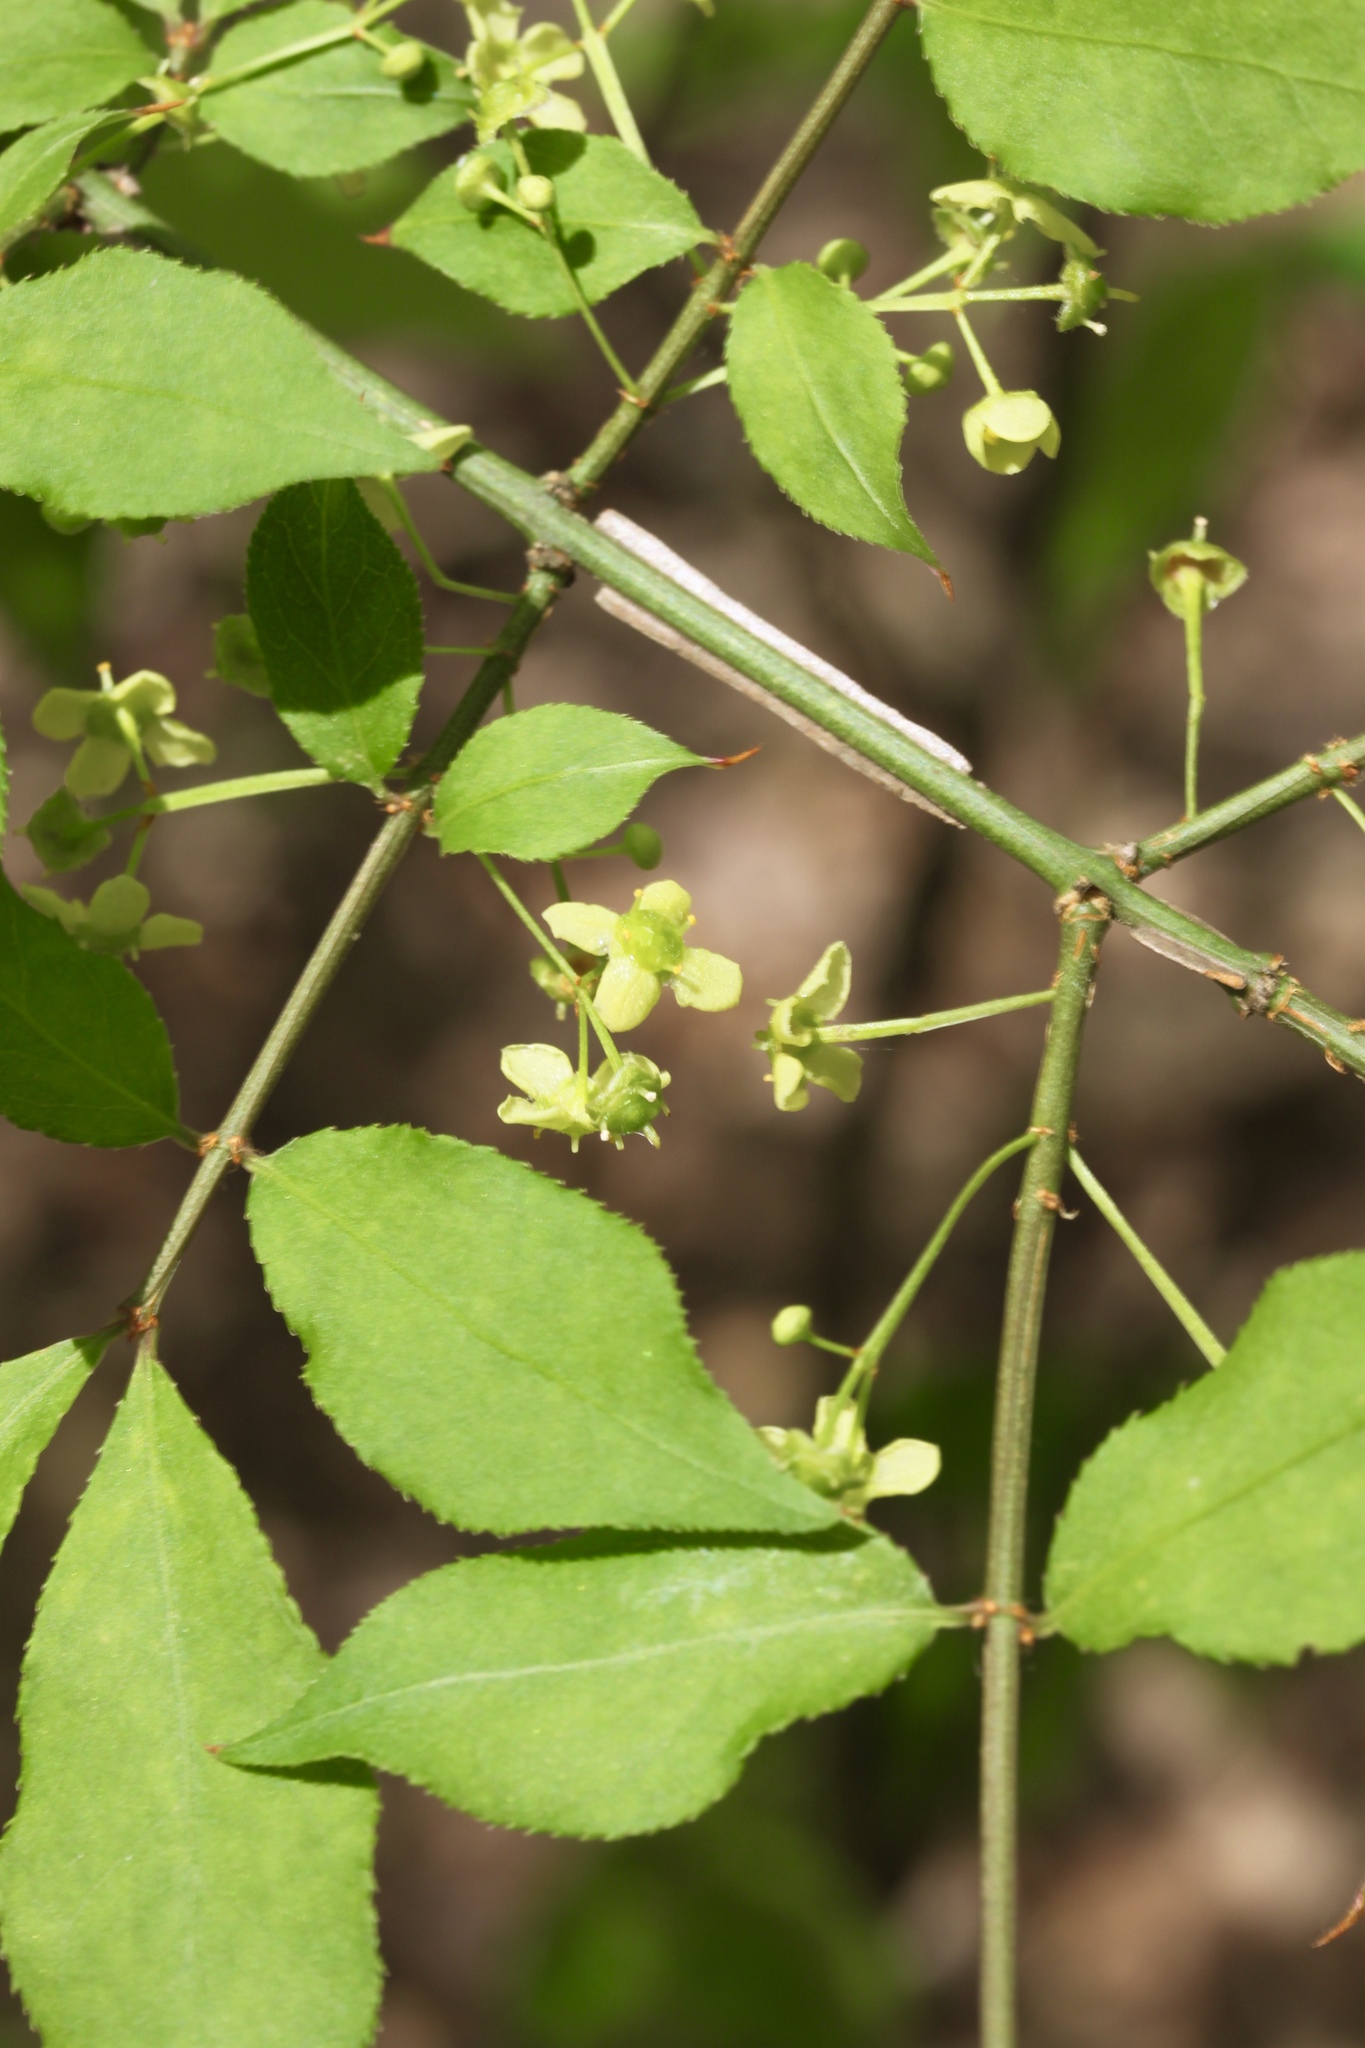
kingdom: Plantae
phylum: Tracheophyta
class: Magnoliopsida
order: Celastrales
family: Celastraceae
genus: Euonymus
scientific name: Euonymus alatus
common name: Winged euonymus
